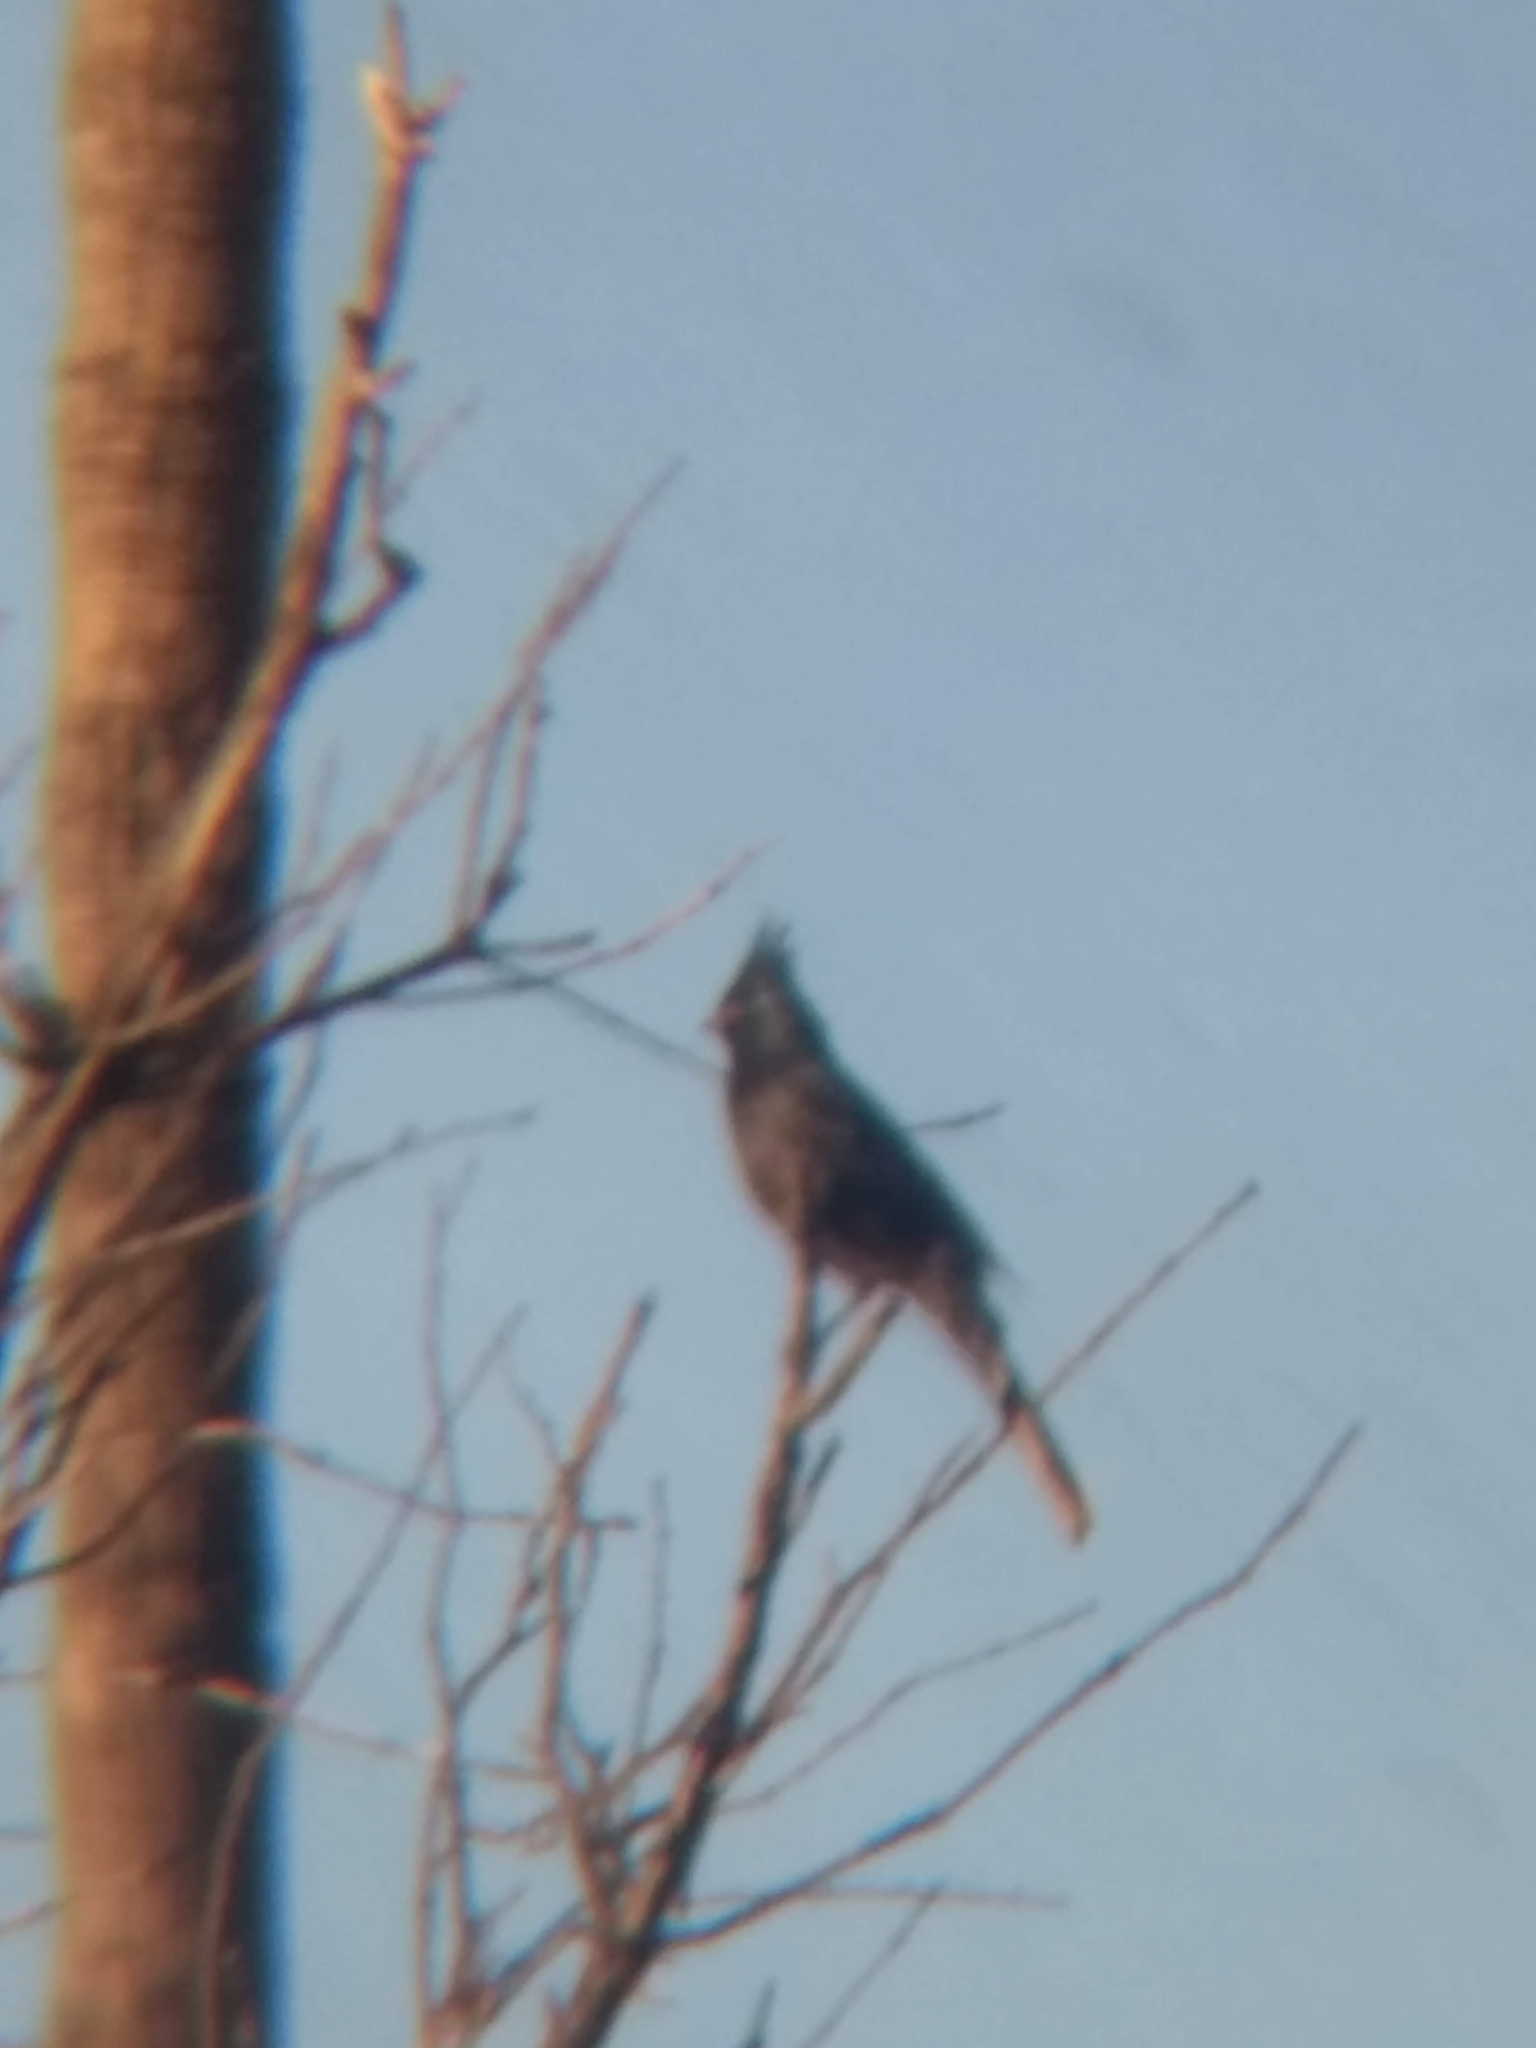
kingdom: Animalia
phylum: Chordata
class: Aves
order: Passeriformes
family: Ptilogonatidae
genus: Phainopepla
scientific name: Phainopepla nitens
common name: Phainopepla
